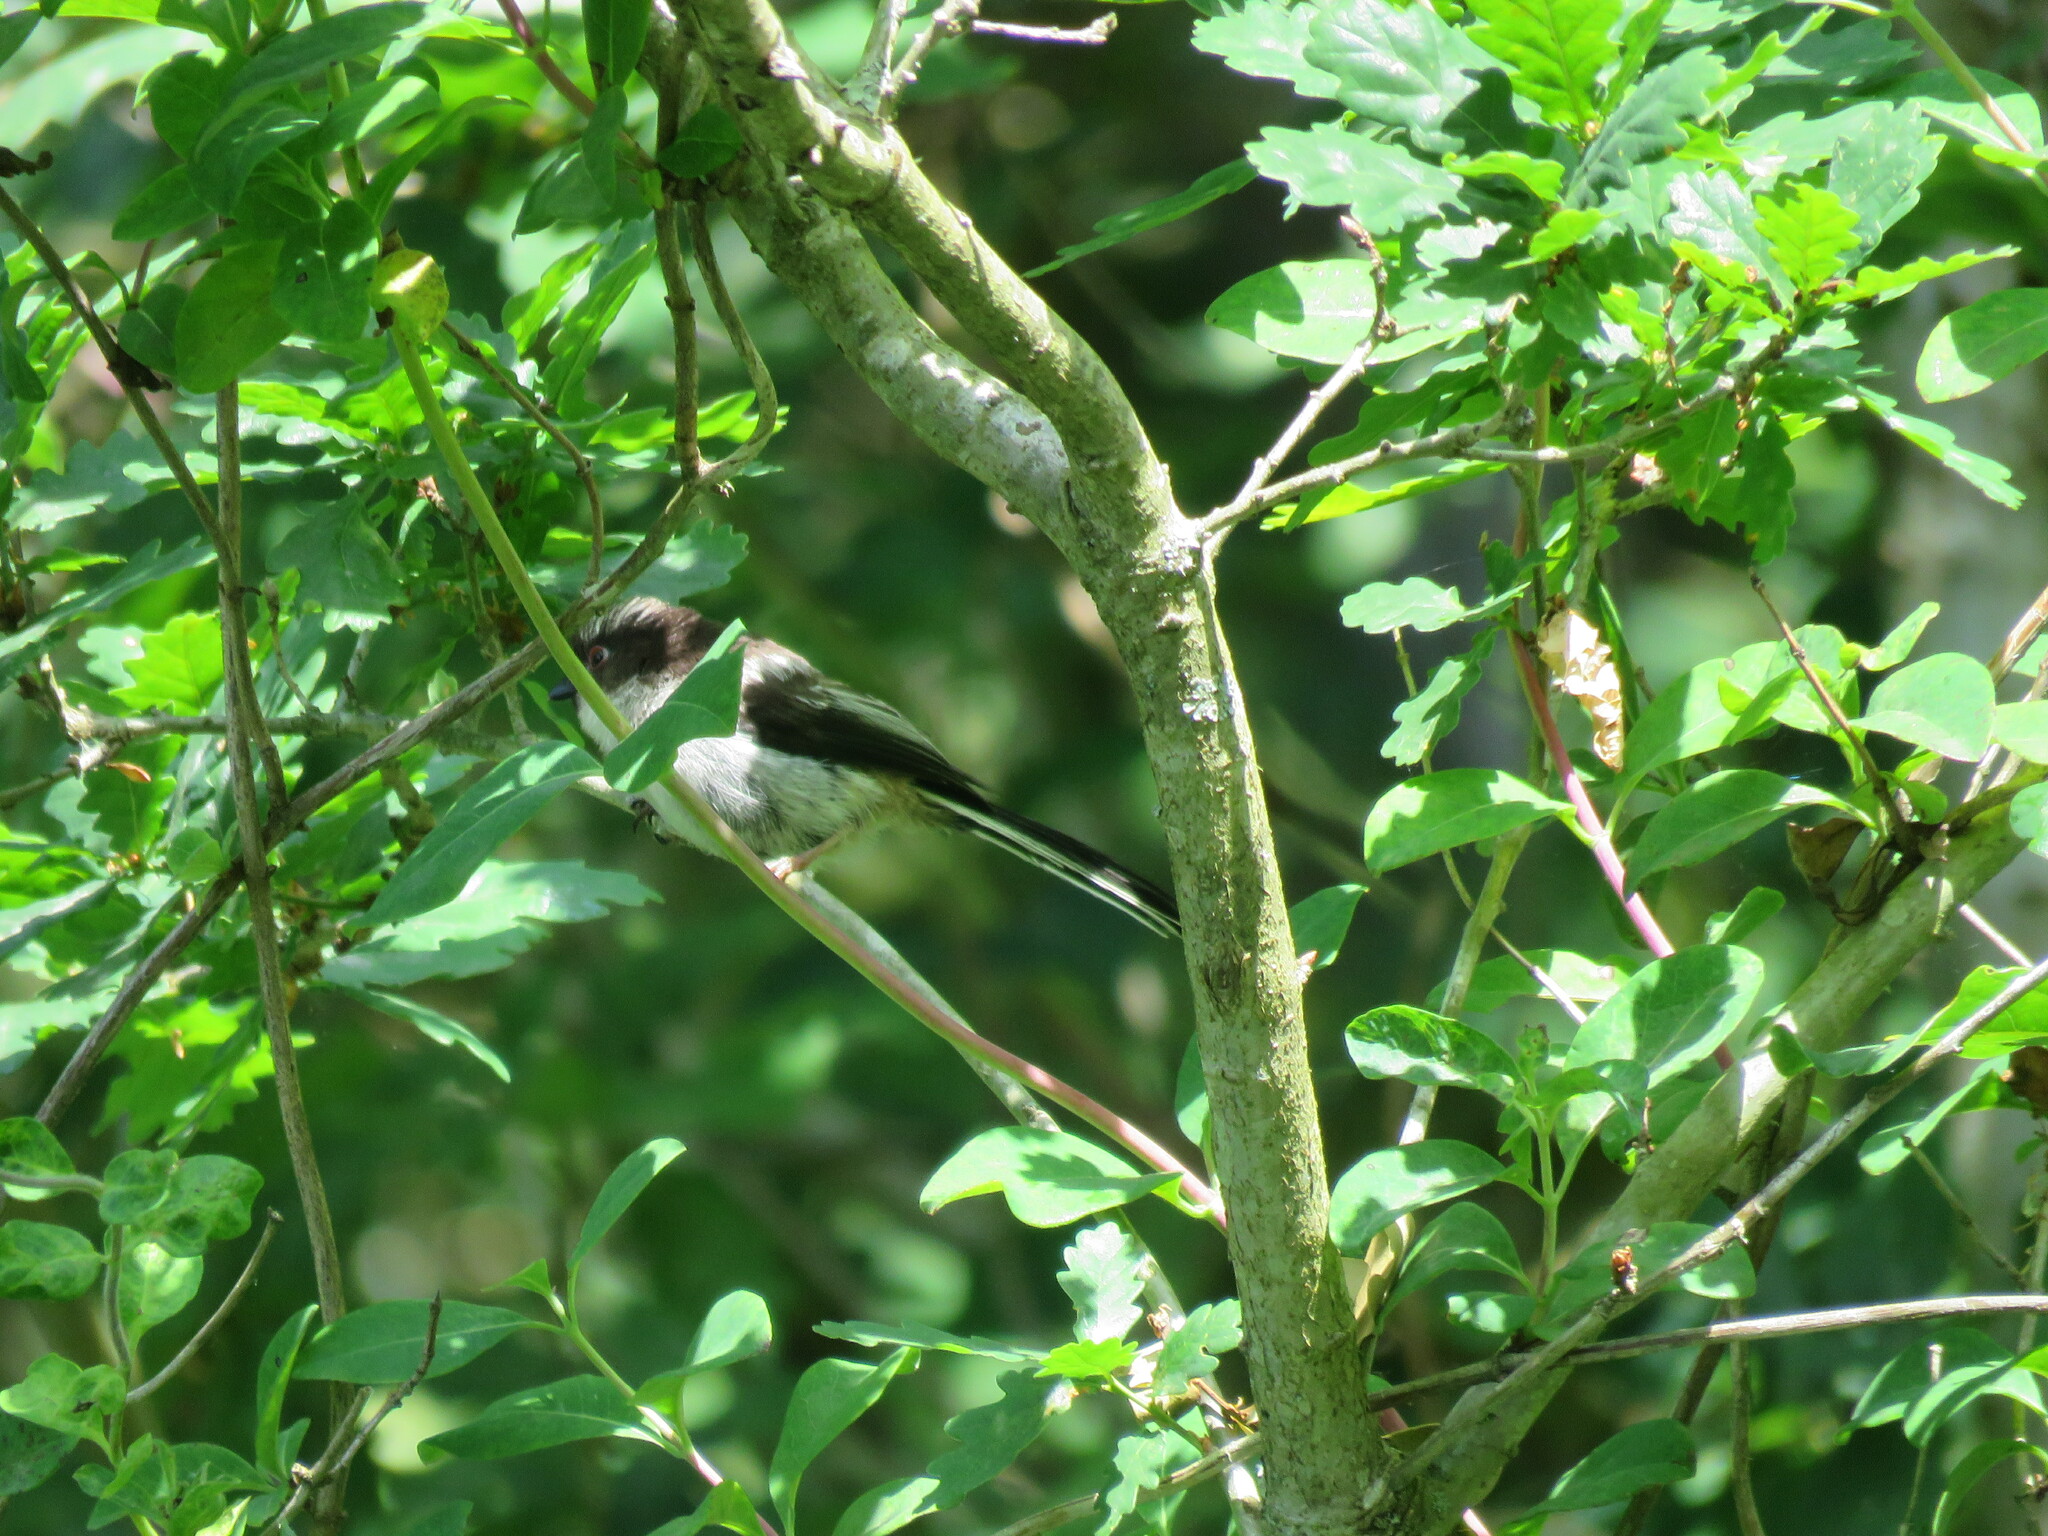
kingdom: Animalia
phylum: Chordata
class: Aves
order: Passeriformes
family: Aegithalidae
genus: Aegithalos
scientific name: Aegithalos caudatus
